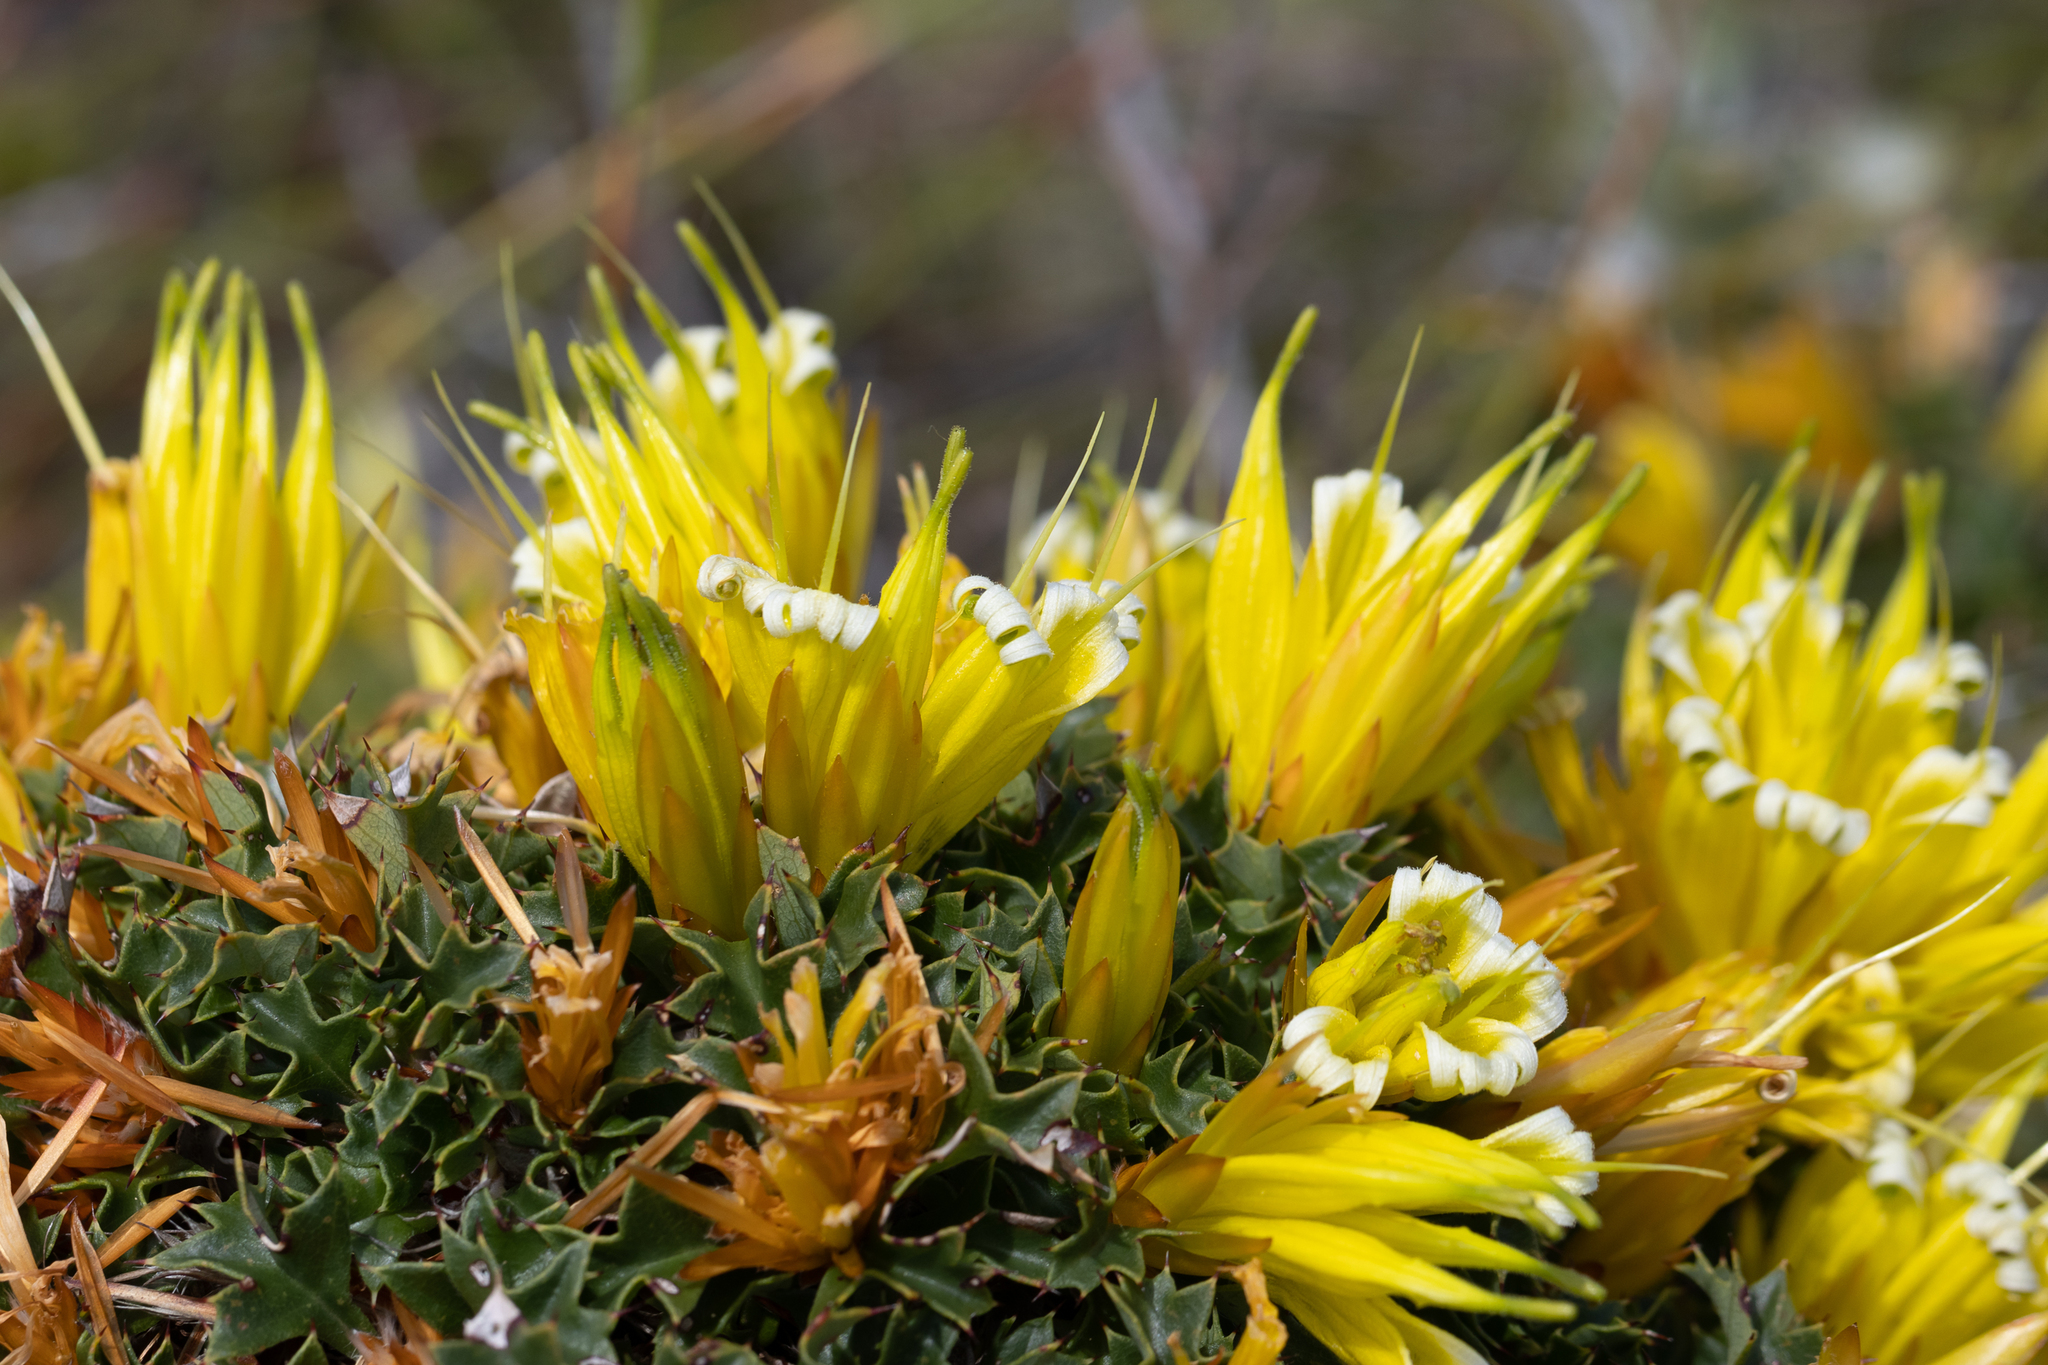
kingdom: Plantae
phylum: Tracheophyta
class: Magnoliopsida
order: Proteales
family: Proteaceae
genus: Lambertia
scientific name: Lambertia echinata
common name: Prickly honeysuckle
